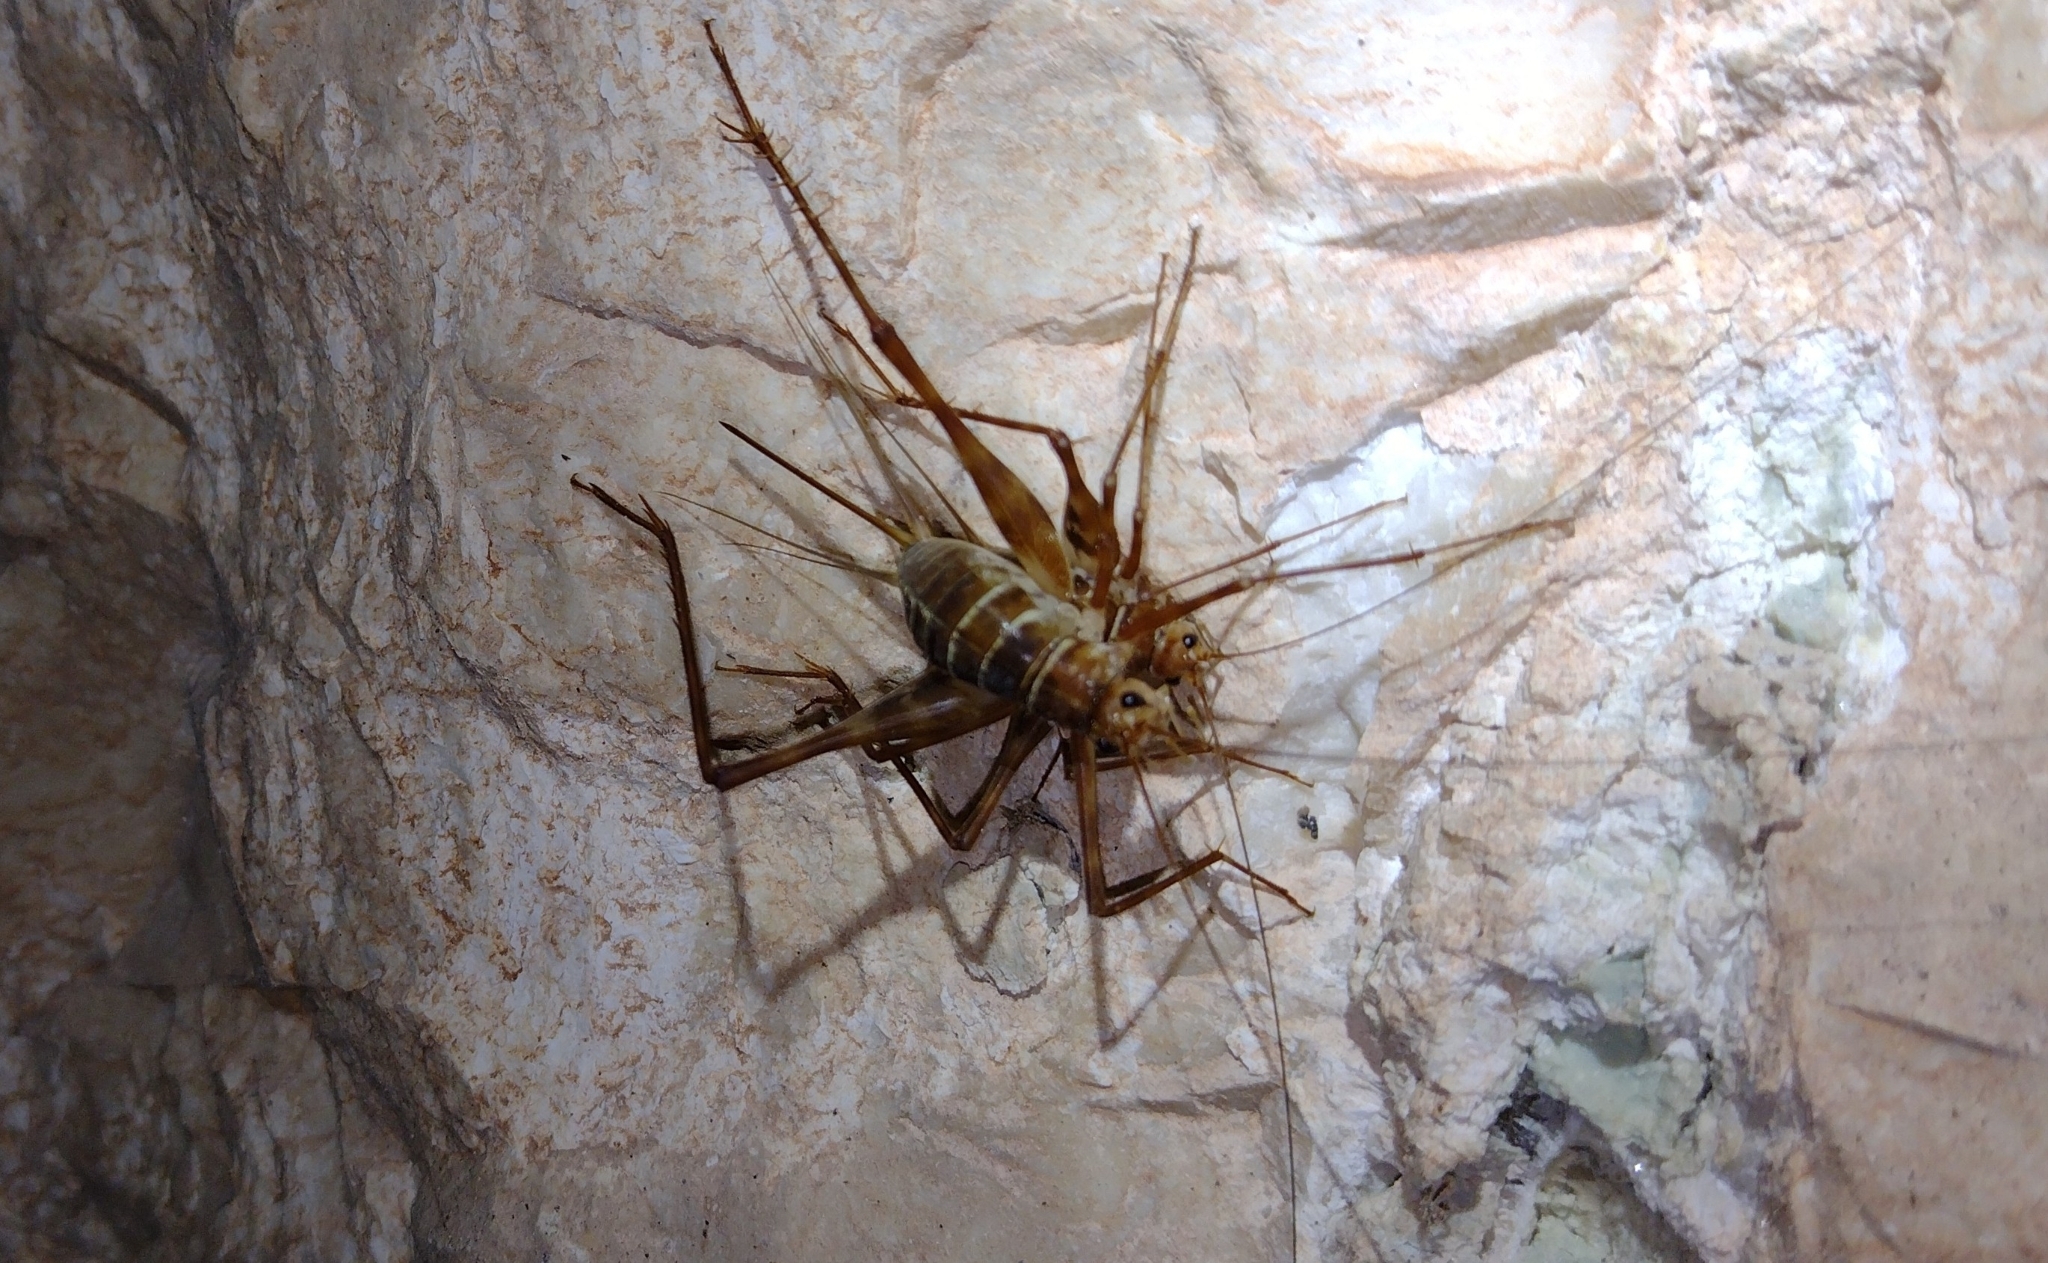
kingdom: Animalia
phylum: Arthropoda
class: Insecta
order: Orthoptera
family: Phalangopsidae
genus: Mayagryllus
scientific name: Mayagryllus yucatanus
